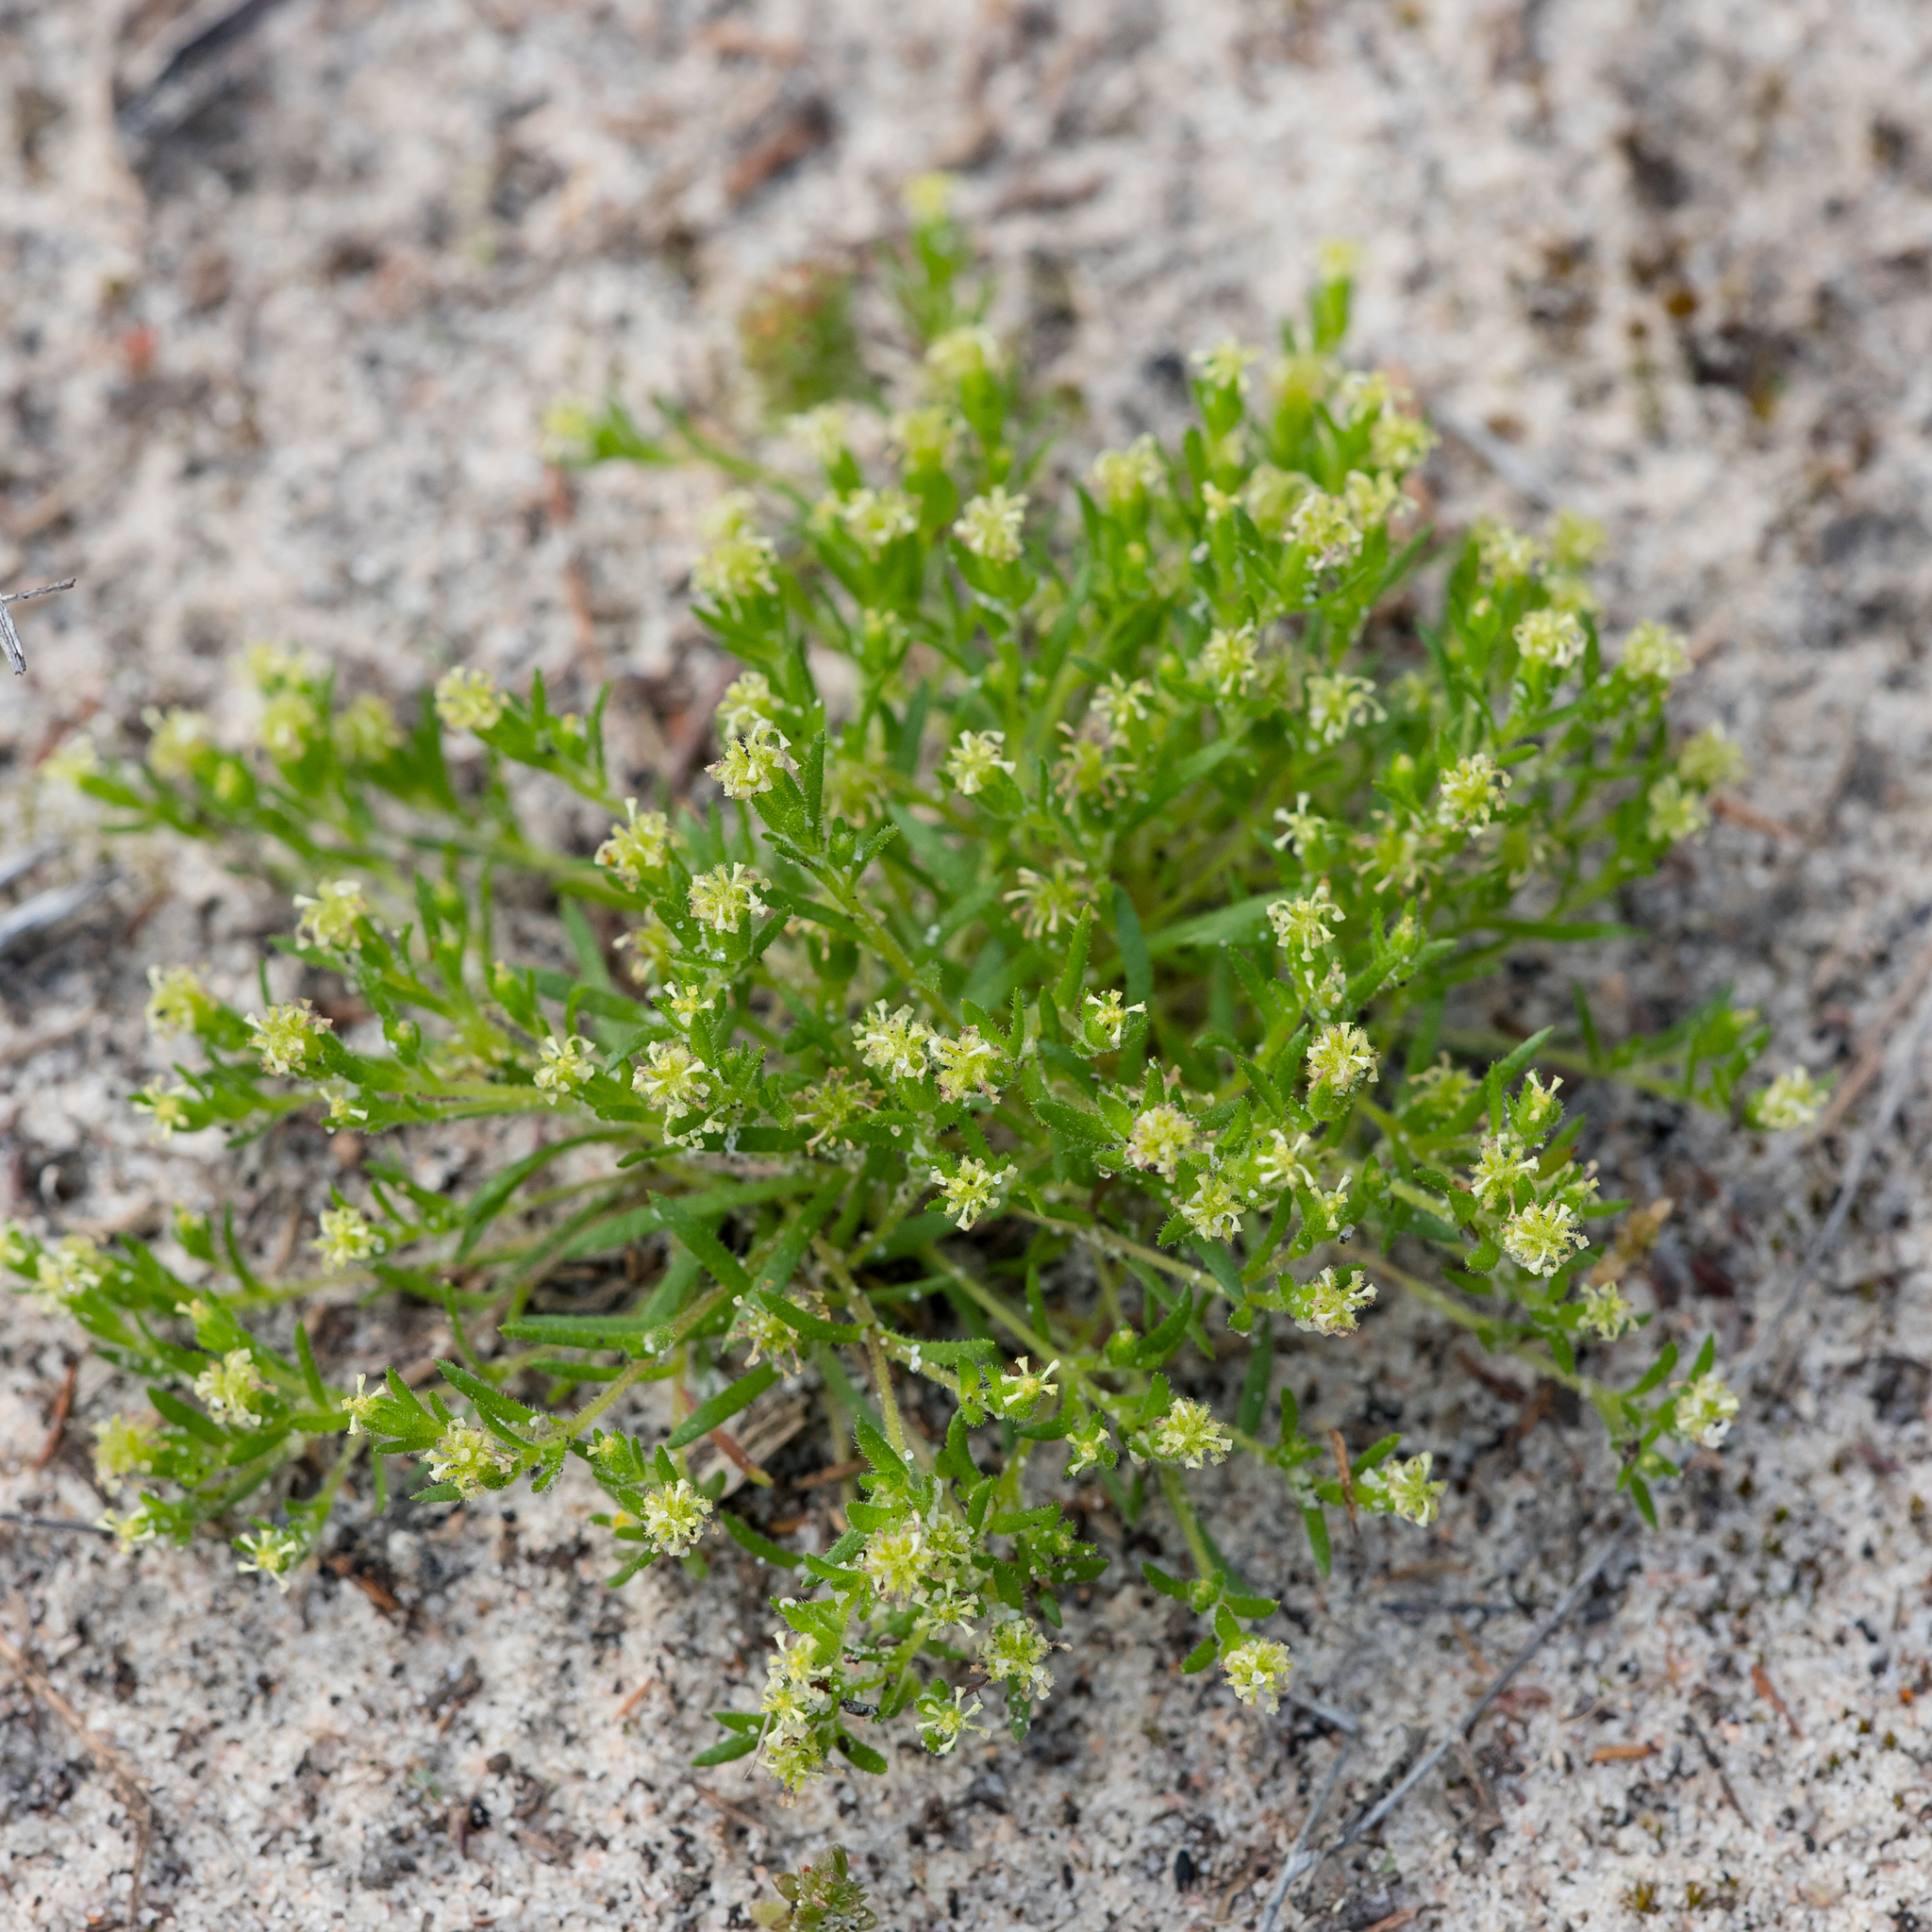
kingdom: Plantae
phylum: Tracheophyta
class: Magnoliopsida
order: Asterales
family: Asteraceae
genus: Millotia
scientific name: Millotia muelleri
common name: Common bow-flower
